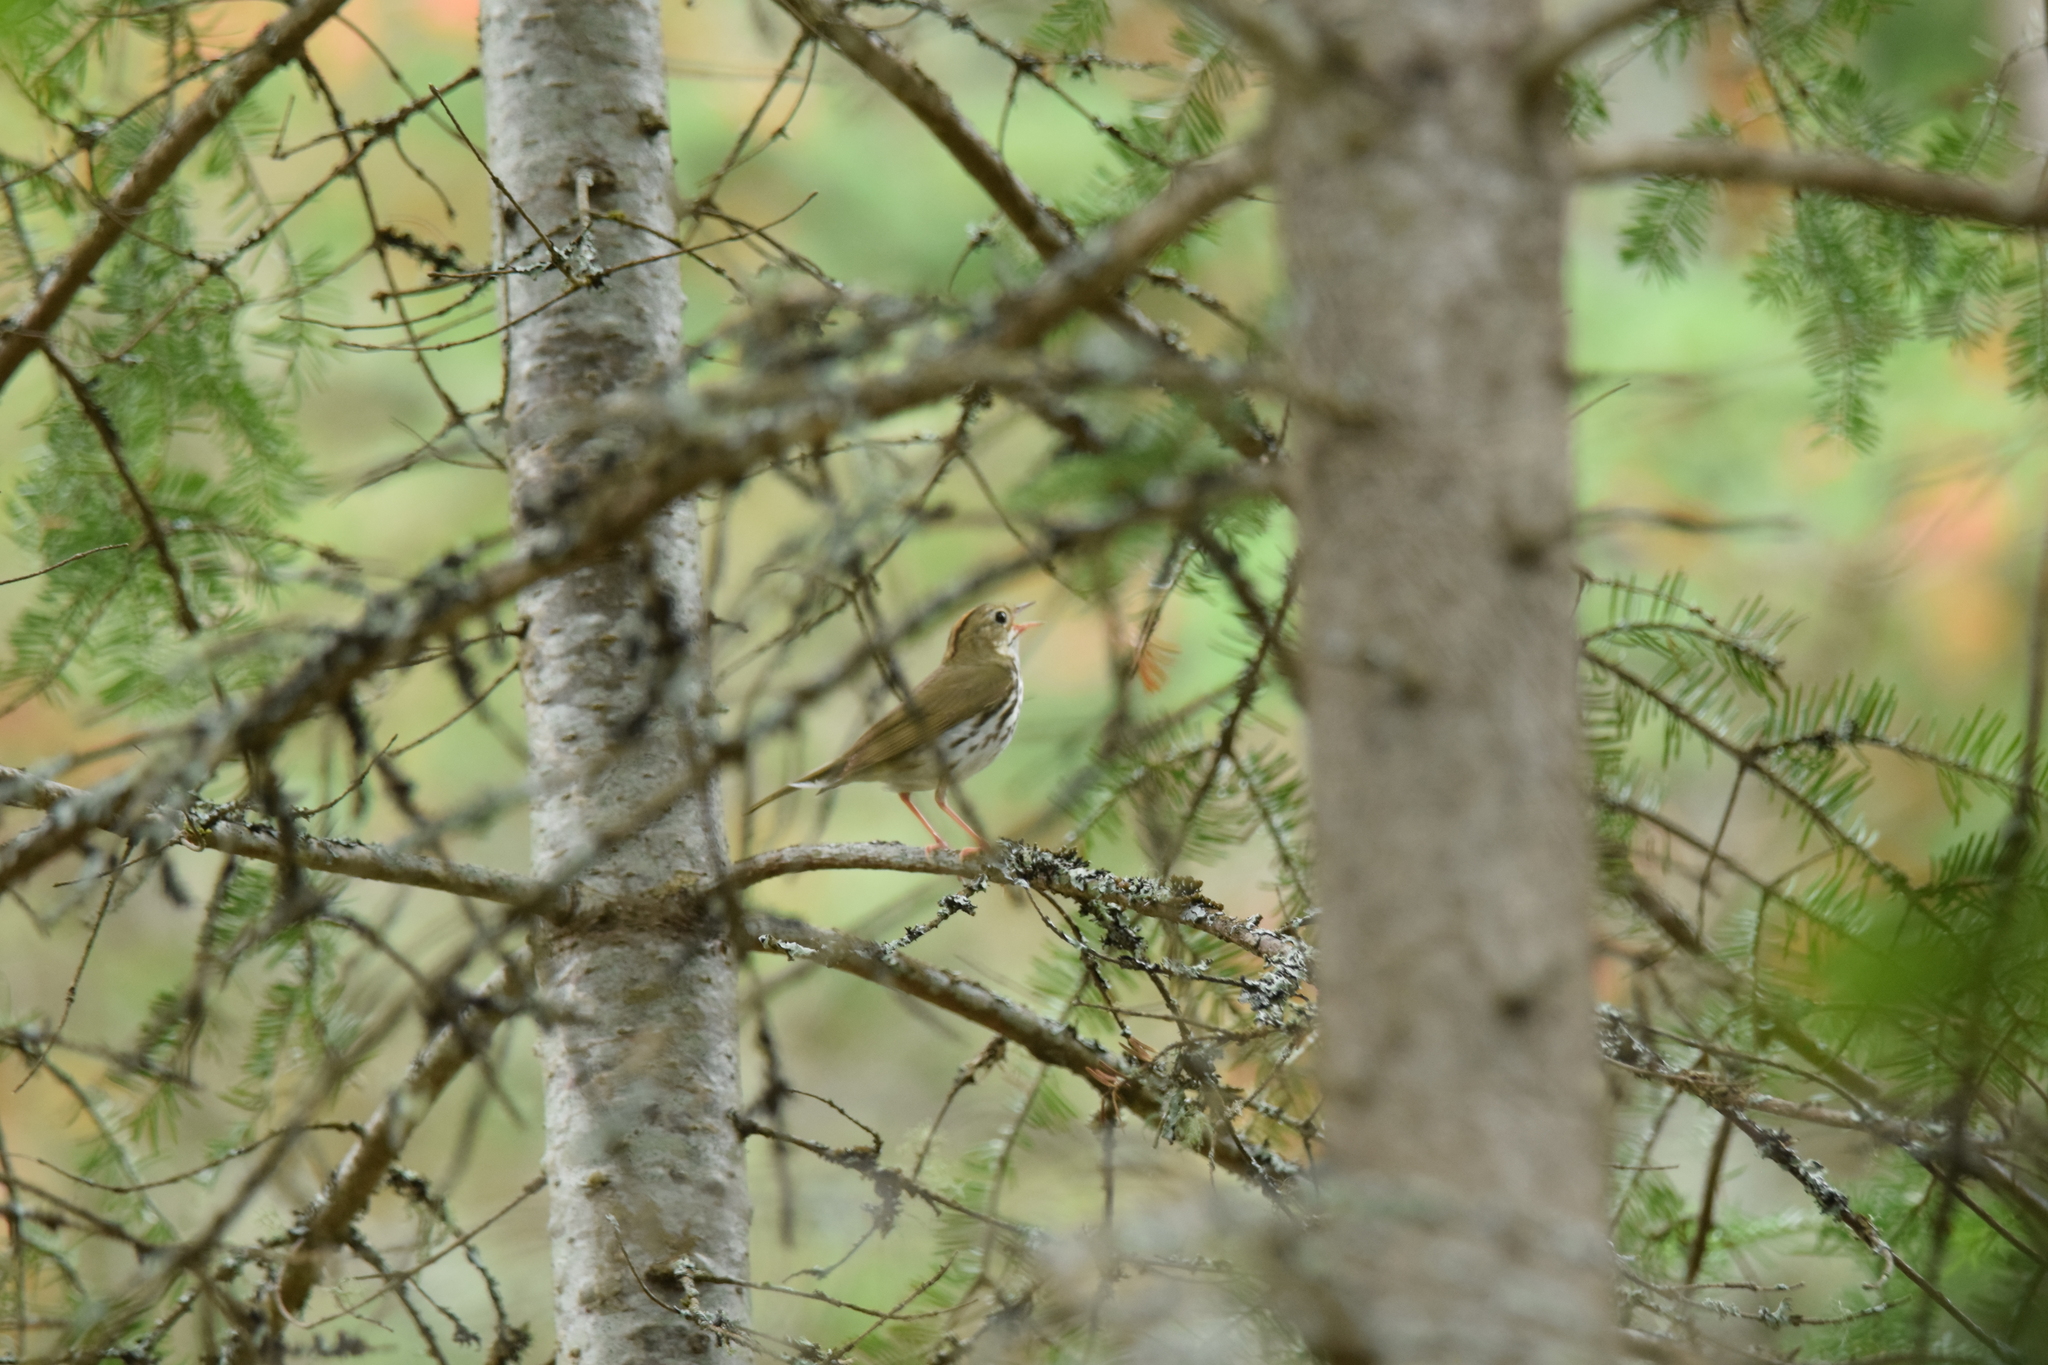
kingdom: Animalia
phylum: Chordata
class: Aves
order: Passeriformes
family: Parulidae
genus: Seiurus
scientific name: Seiurus aurocapilla
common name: Ovenbird
